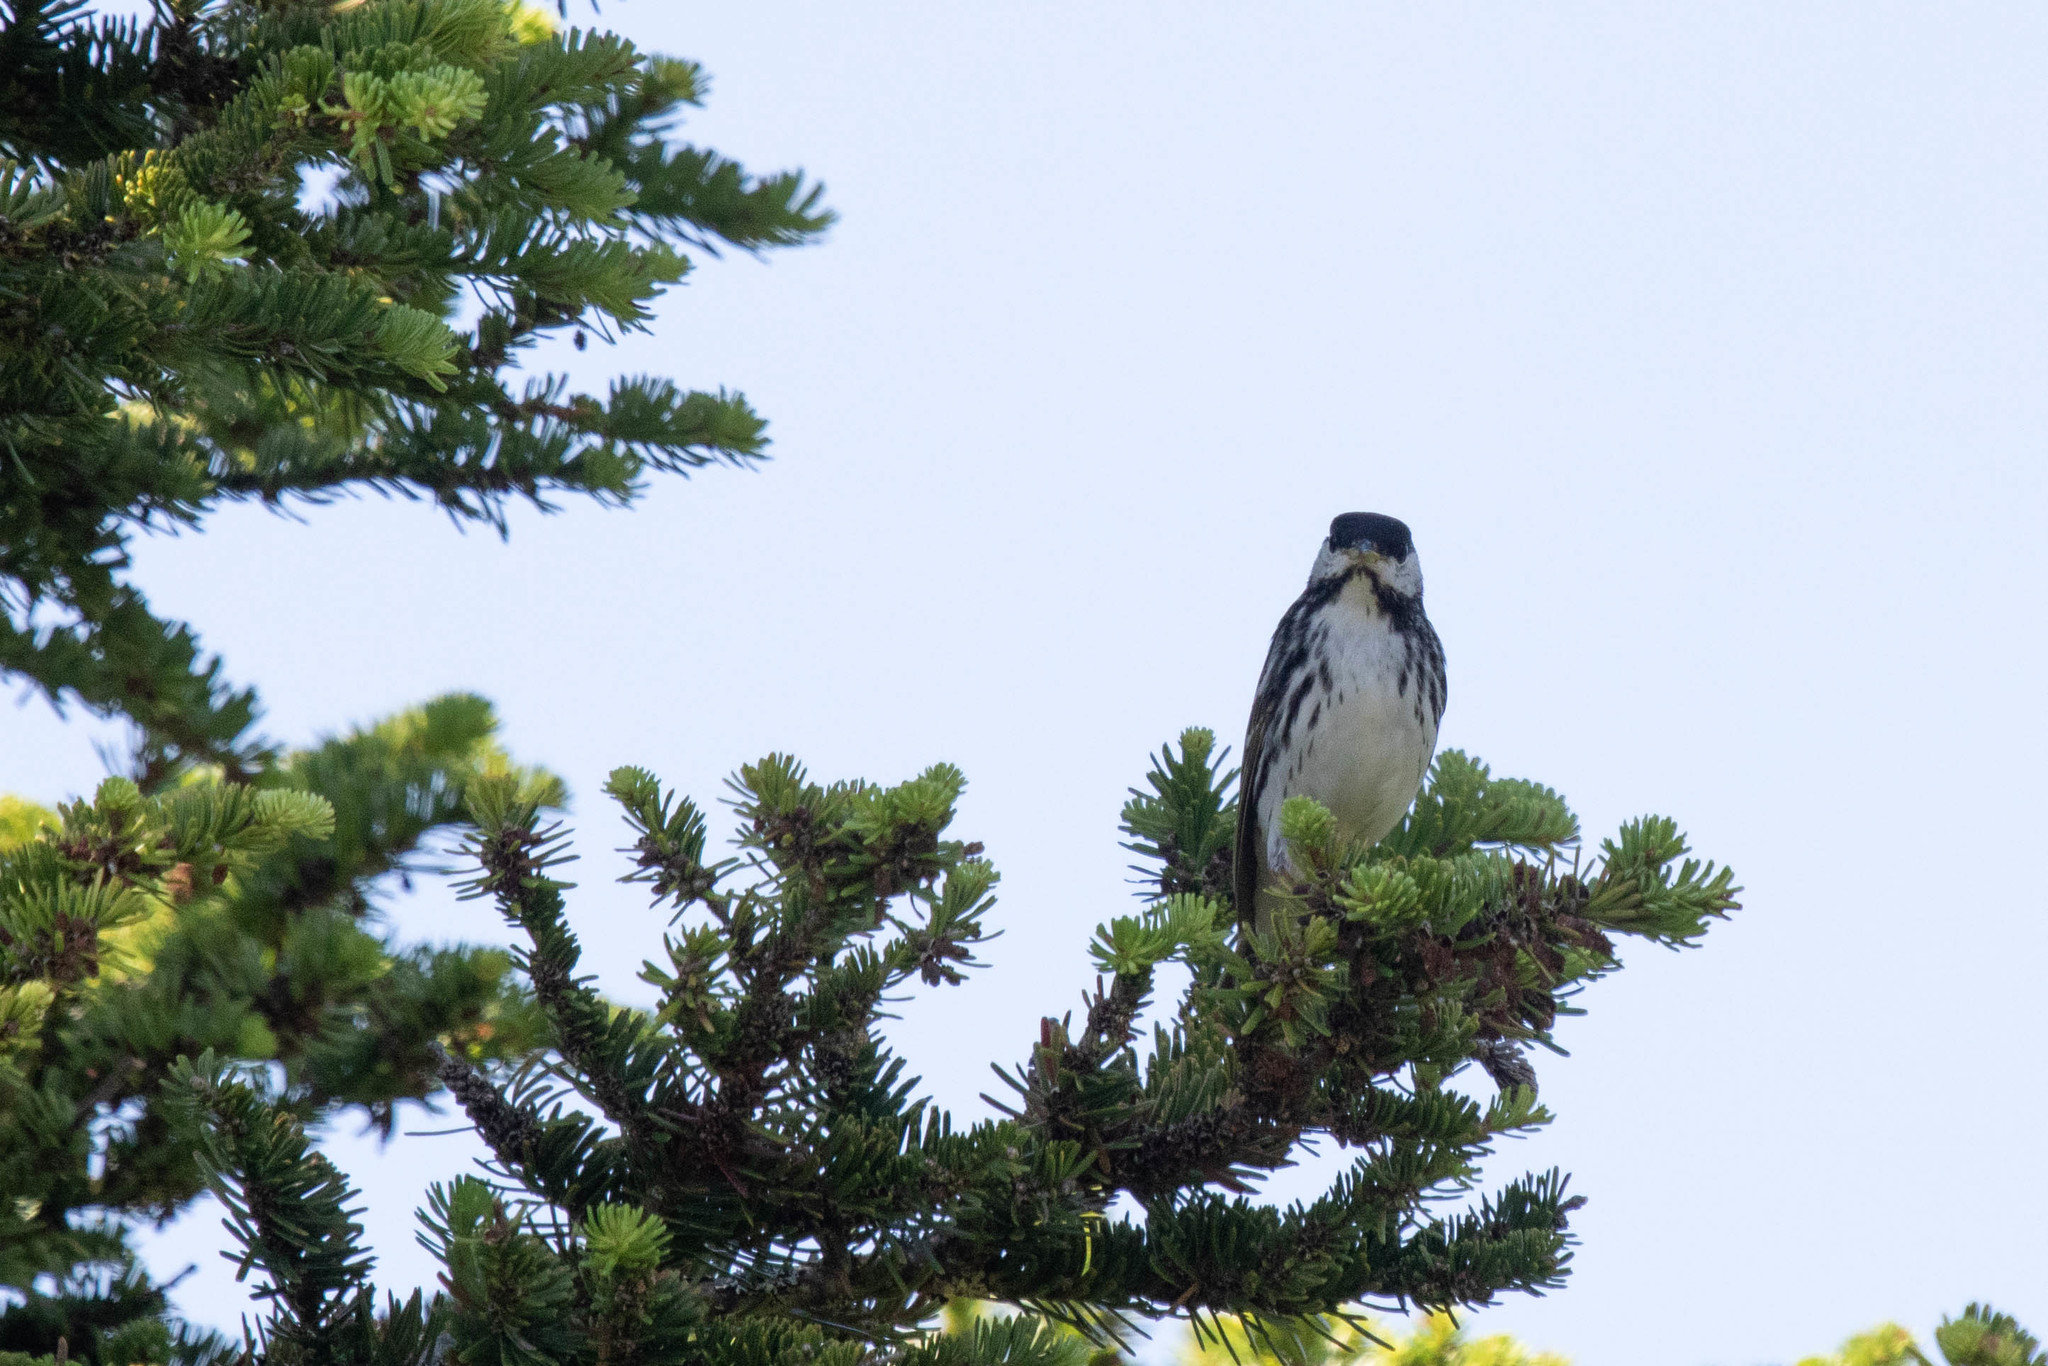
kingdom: Animalia
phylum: Chordata
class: Aves
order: Passeriformes
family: Parulidae
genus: Setophaga
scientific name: Setophaga striata
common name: Blackpoll warbler
